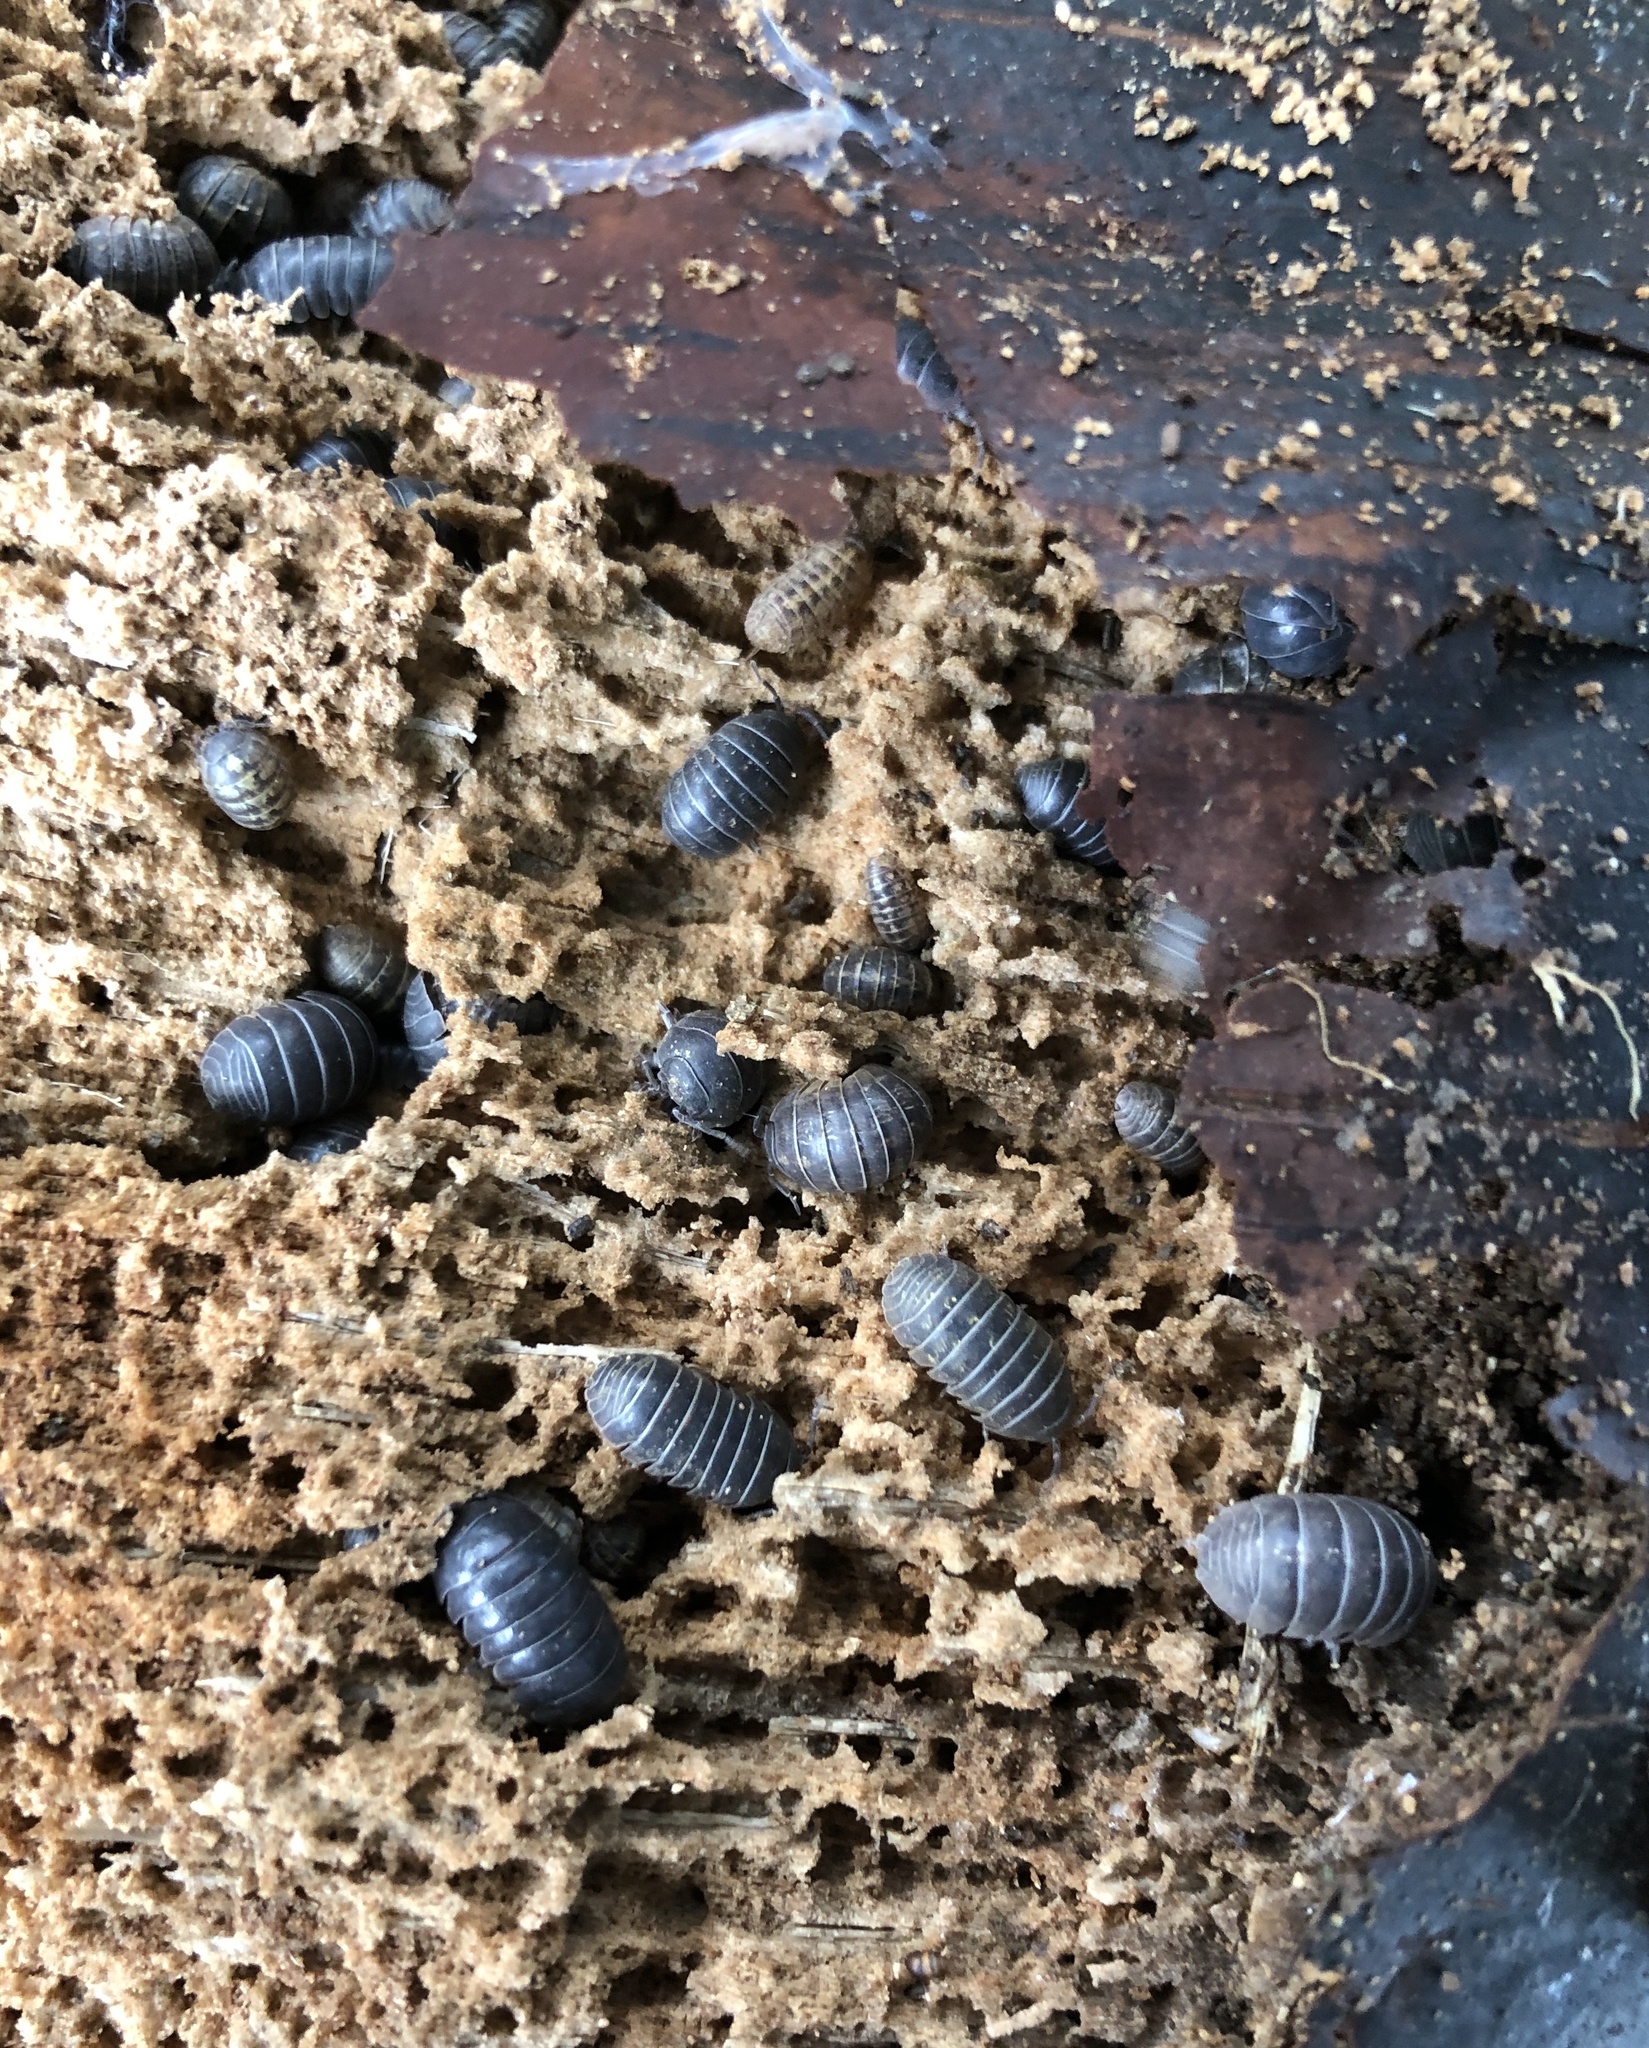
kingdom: Animalia
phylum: Arthropoda
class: Malacostraca
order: Isopoda
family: Armadillidiidae
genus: Armadillidium
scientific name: Armadillidium vulgare
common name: Common pill woodlouse
